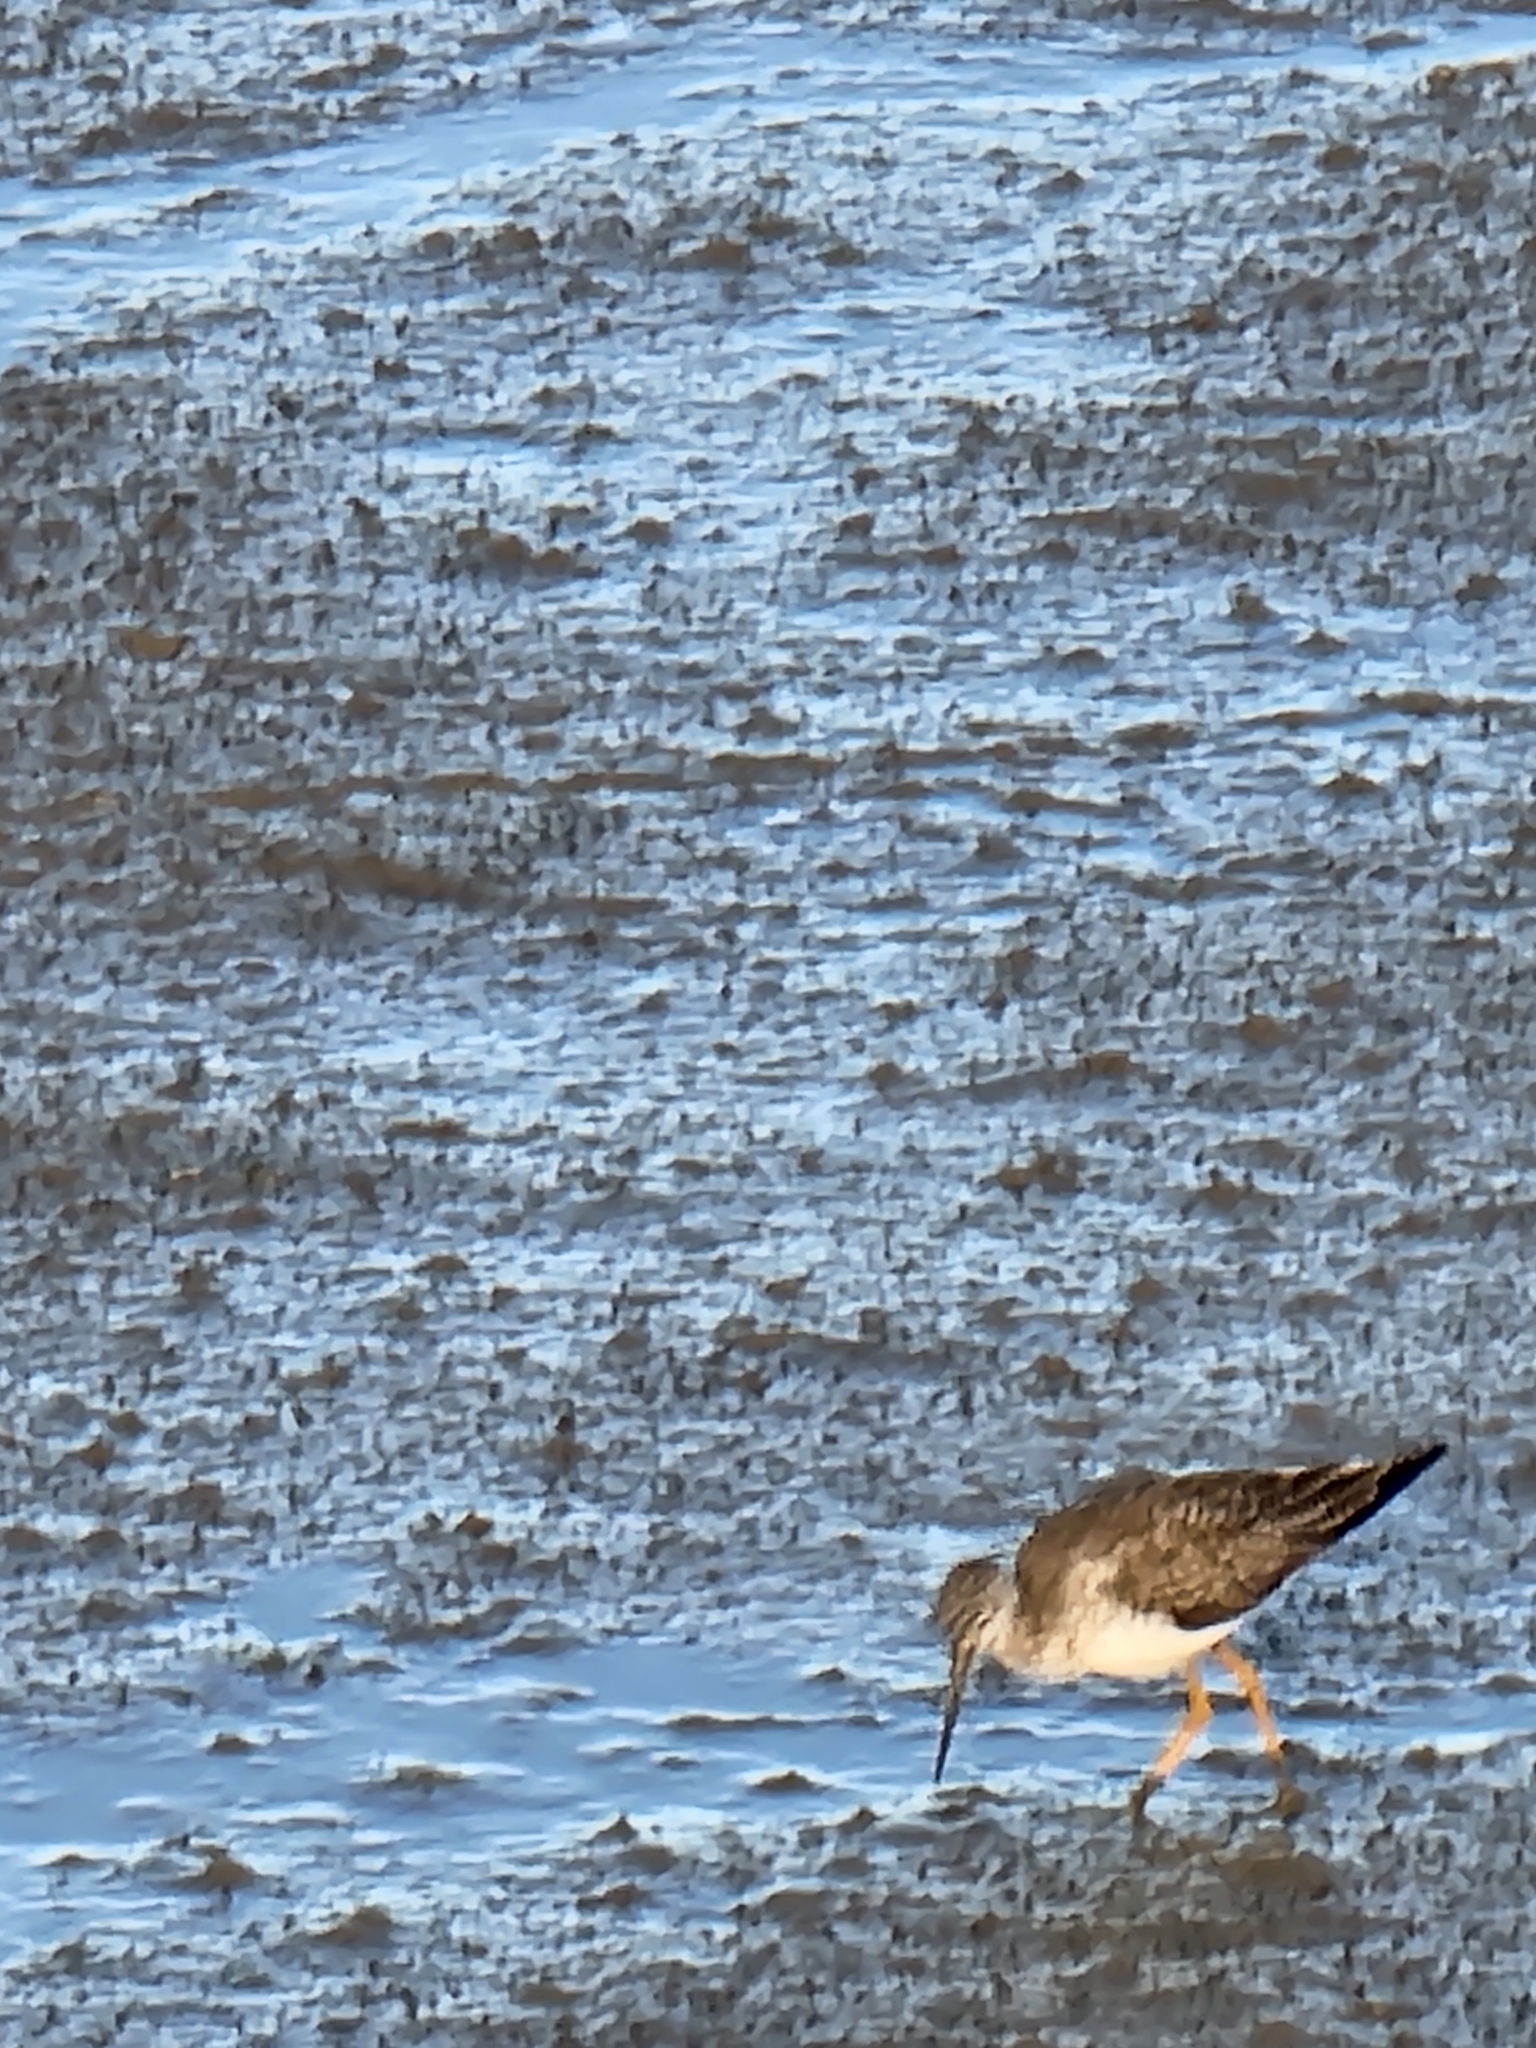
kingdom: Animalia
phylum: Chordata
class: Aves
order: Charadriiformes
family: Scolopacidae
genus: Tringa
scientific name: Tringa melanoleuca
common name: Greater yellowlegs
